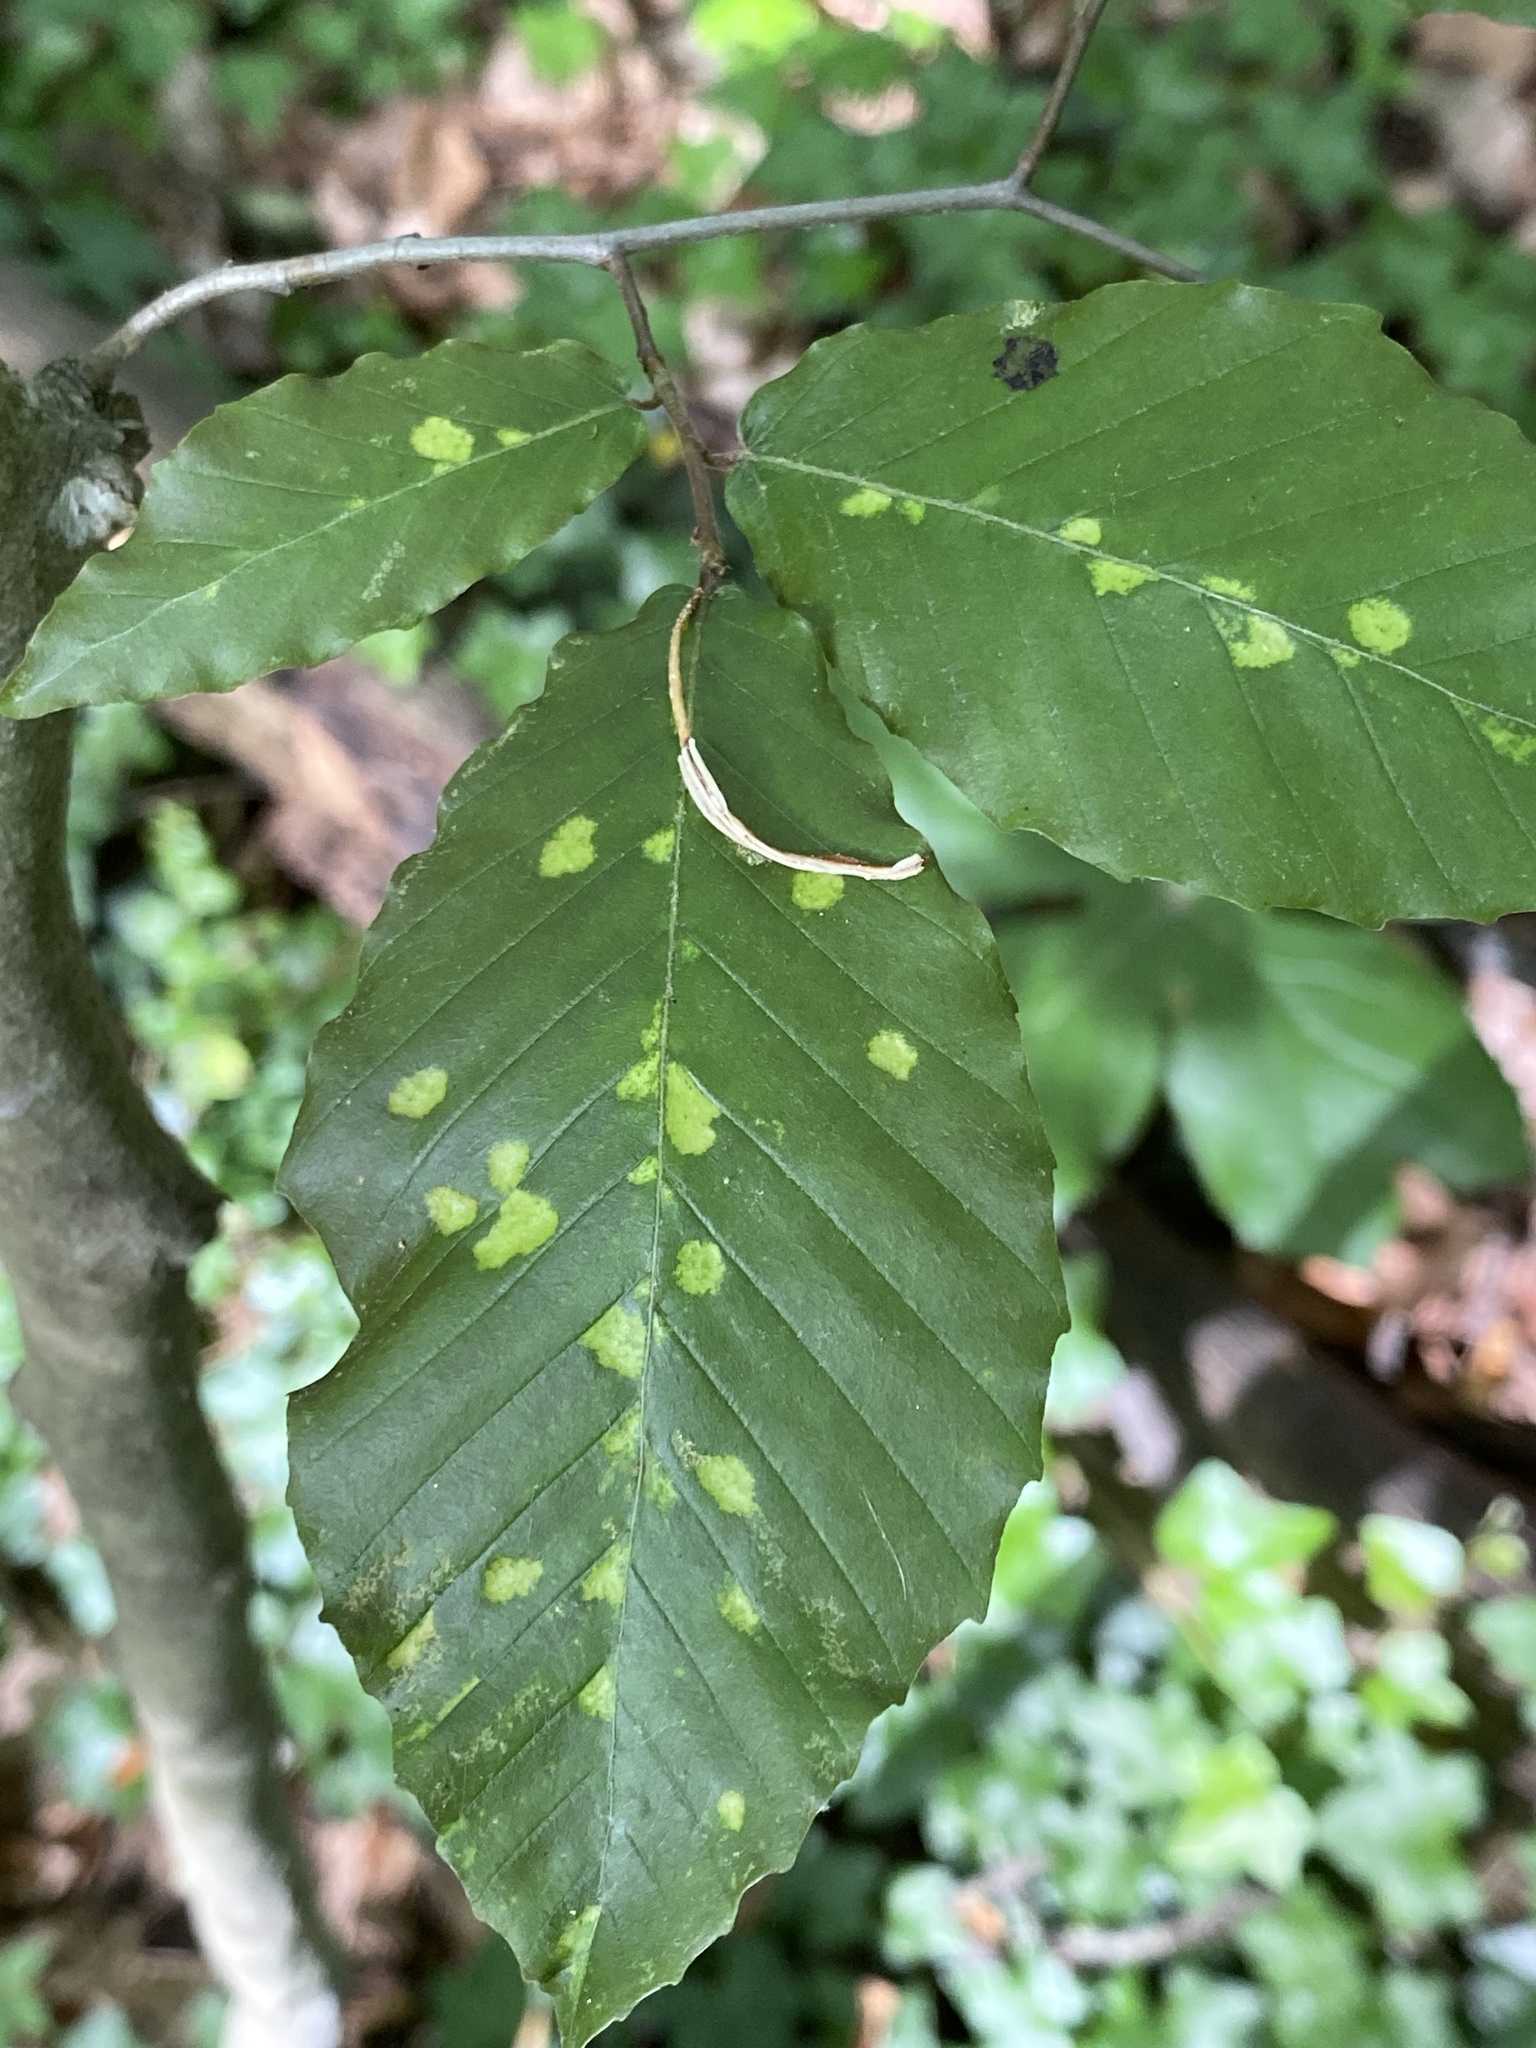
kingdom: Animalia
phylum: Arthropoda
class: Arachnida
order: Trombidiformes
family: Eriophyidae
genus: Acalitus
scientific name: Acalitus
